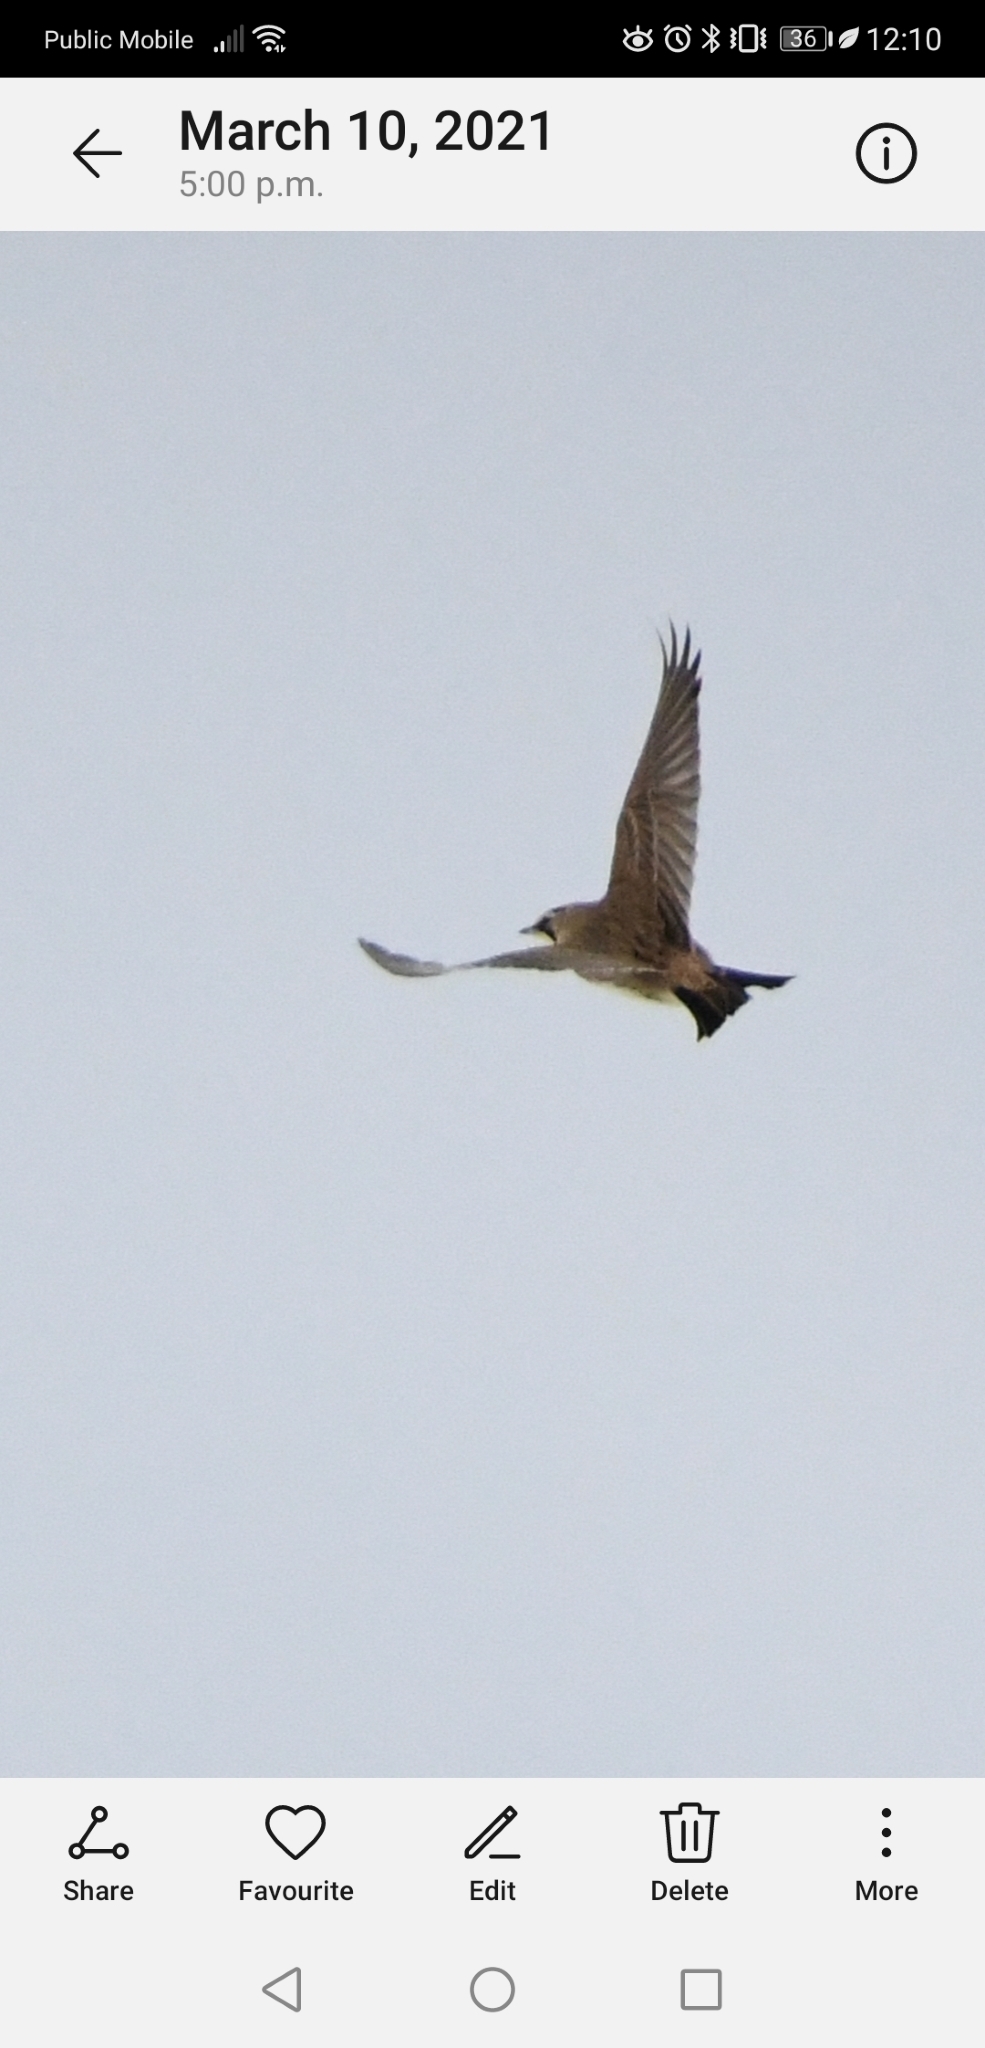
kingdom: Animalia
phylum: Chordata
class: Aves
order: Passeriformes
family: Alaudidae
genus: Eremophila
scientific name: Eremophila alpestris
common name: Horned lark
